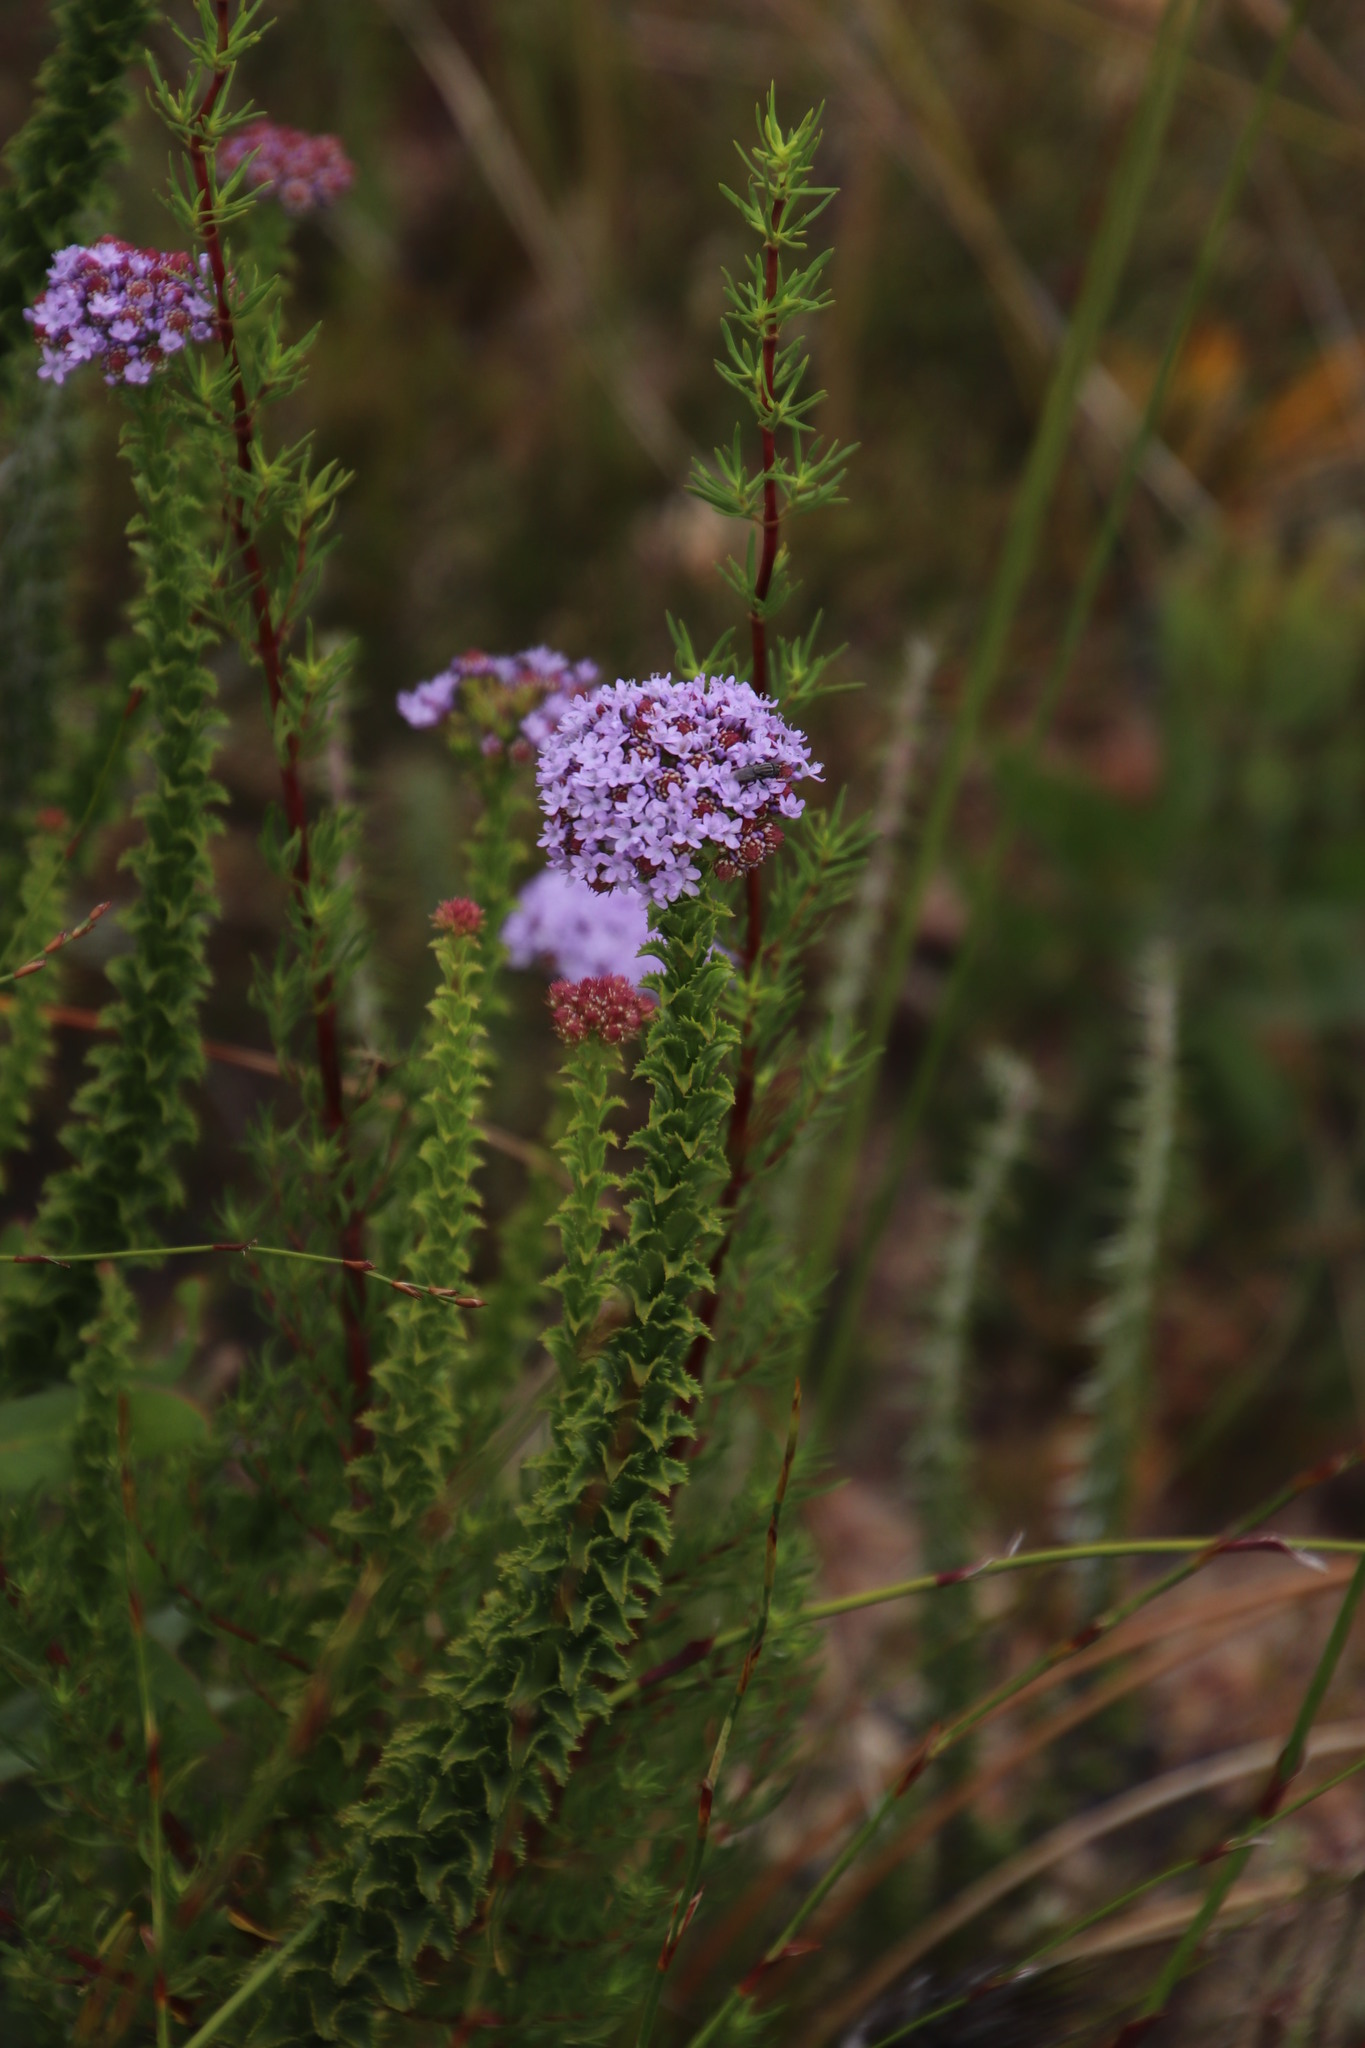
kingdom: Plantae
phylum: Tracheophyta
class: Magnoliopsida
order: Lamiales
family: Scrophulariaceae
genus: Pseudoselago
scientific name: Pseudoselago serrata
